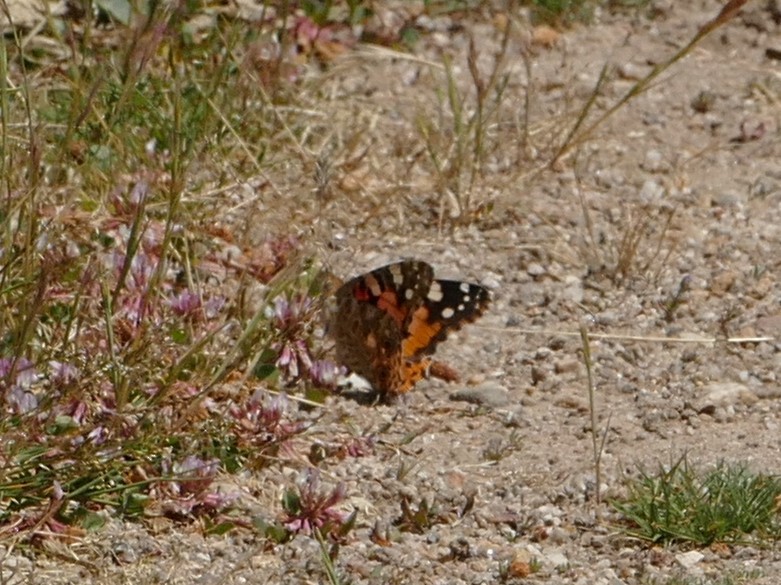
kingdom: Animalia
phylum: Arthropoda
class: Insecta
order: Lepidoptera
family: Nymphalidae
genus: Vanessa
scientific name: Vanessa cardui
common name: Painted lady
